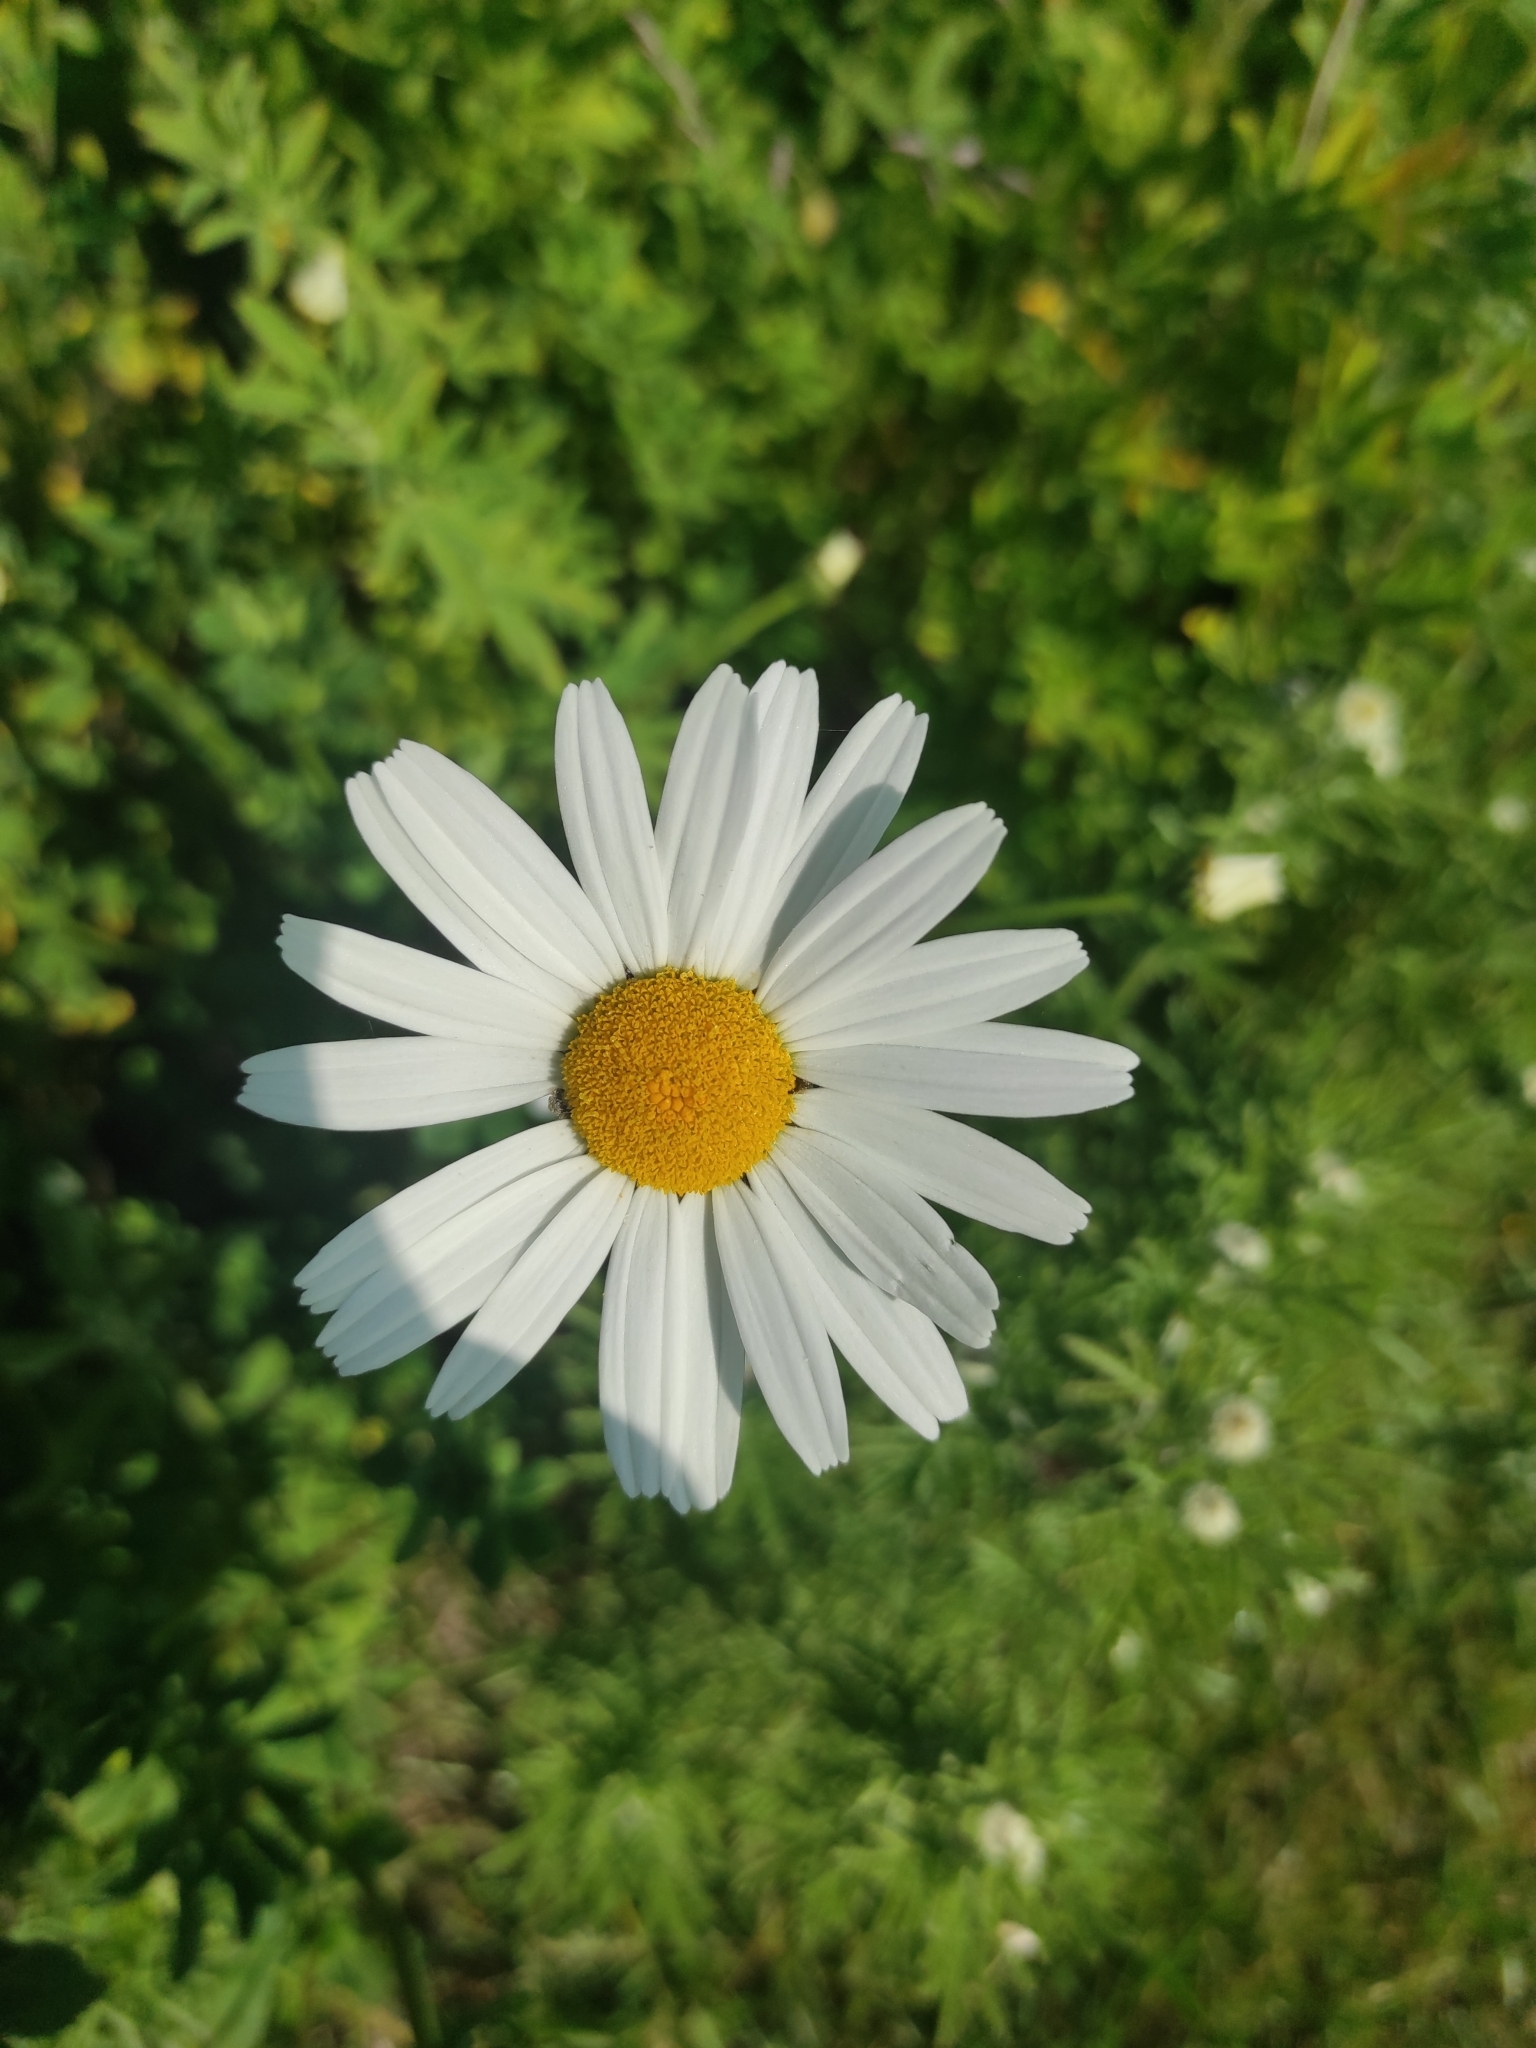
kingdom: Plantae
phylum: Tracheophyta
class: Magnoliopsida
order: Asterales
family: Asteraceae
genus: Leucanthemum
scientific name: Leucanthemum vulgare
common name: Oxeye daisy
